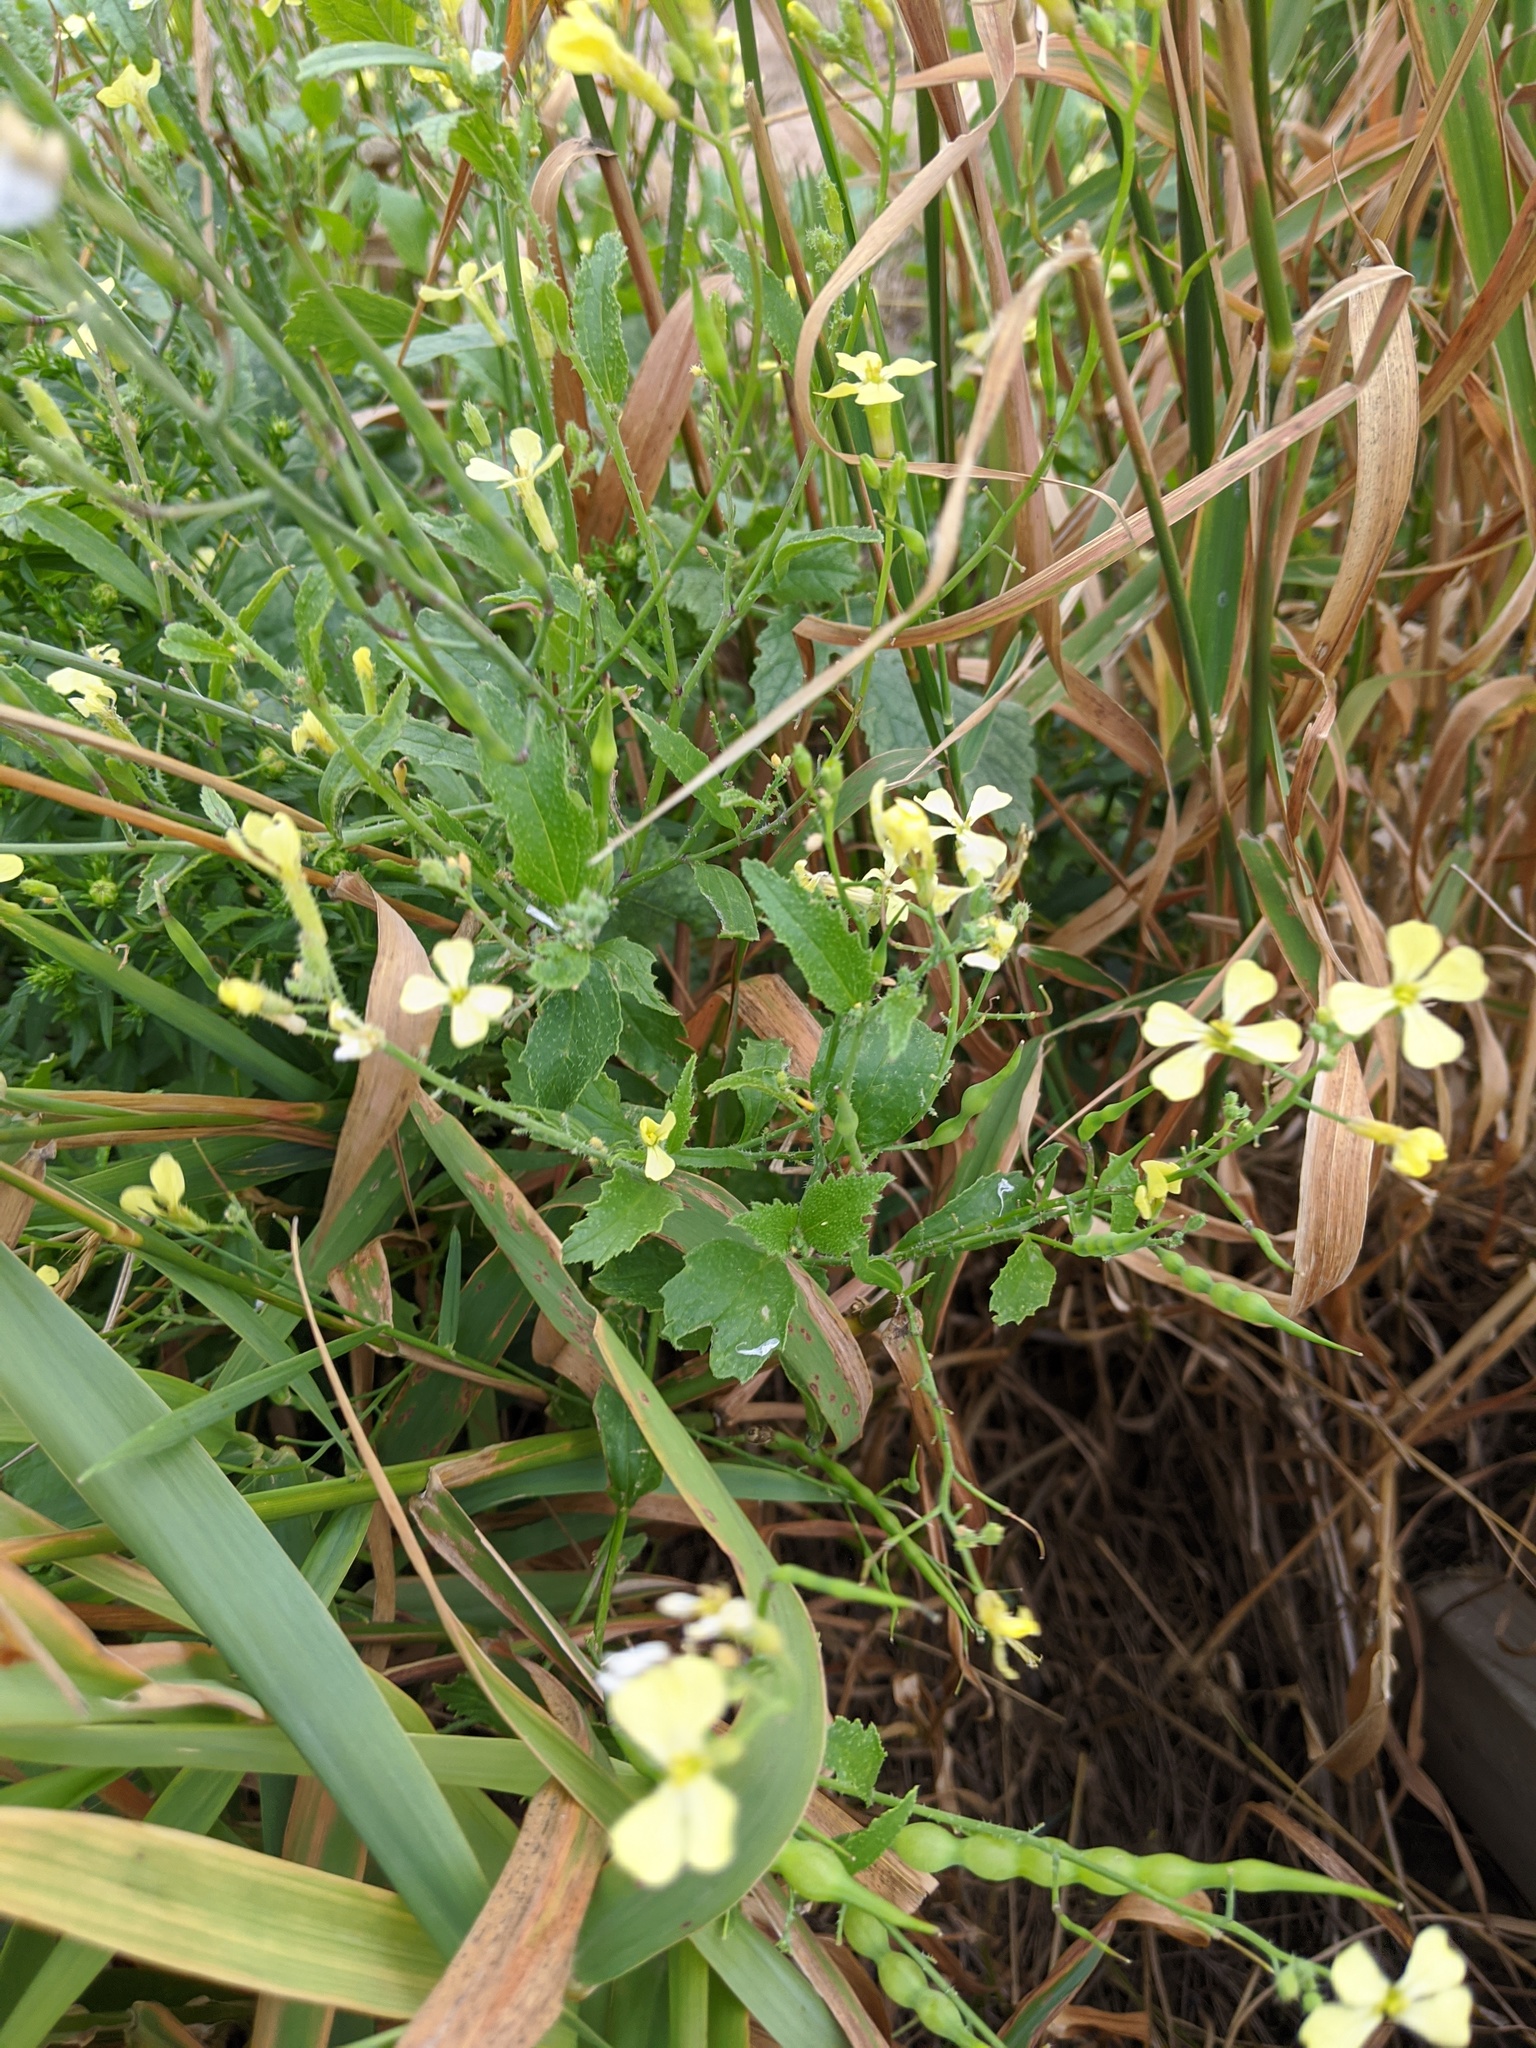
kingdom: Plantae
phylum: Tracheophyta
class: Magnoliopsida
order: Brassicales
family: Brassicaceae
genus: Raphanus
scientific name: Raphanus raphanistrum
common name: Wild radish
